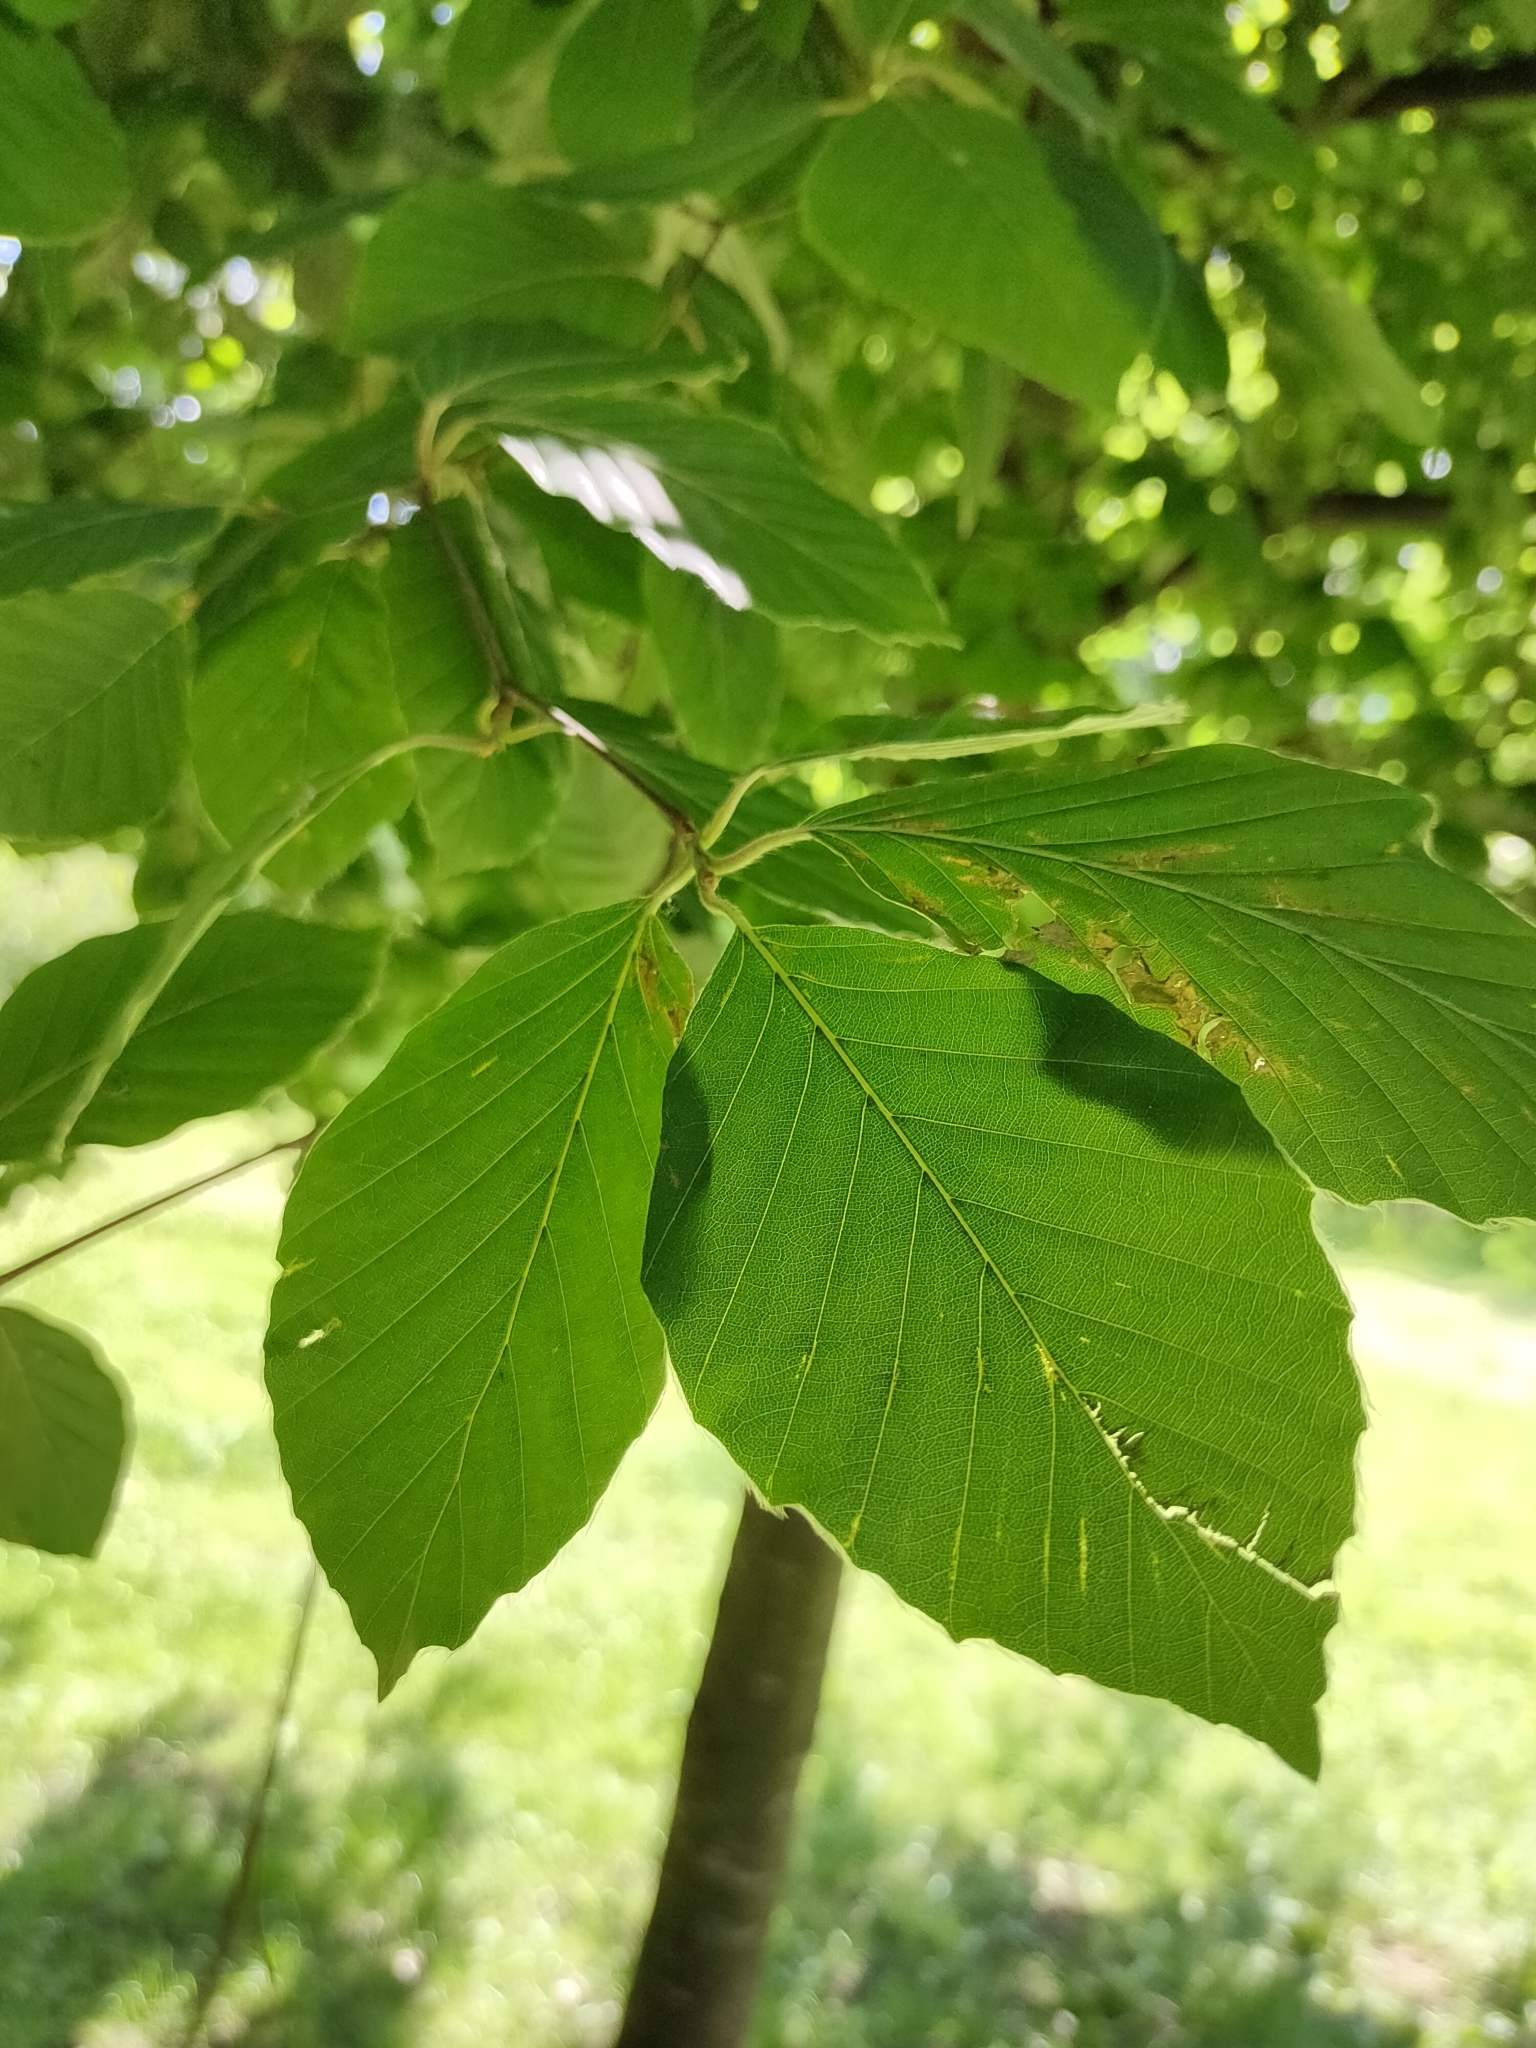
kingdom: Plantae
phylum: Tracheophyta
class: Magnoliopsida
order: Fagales
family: Fagaceae
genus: Fagus
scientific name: Fagus sylvatica
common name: Beech
